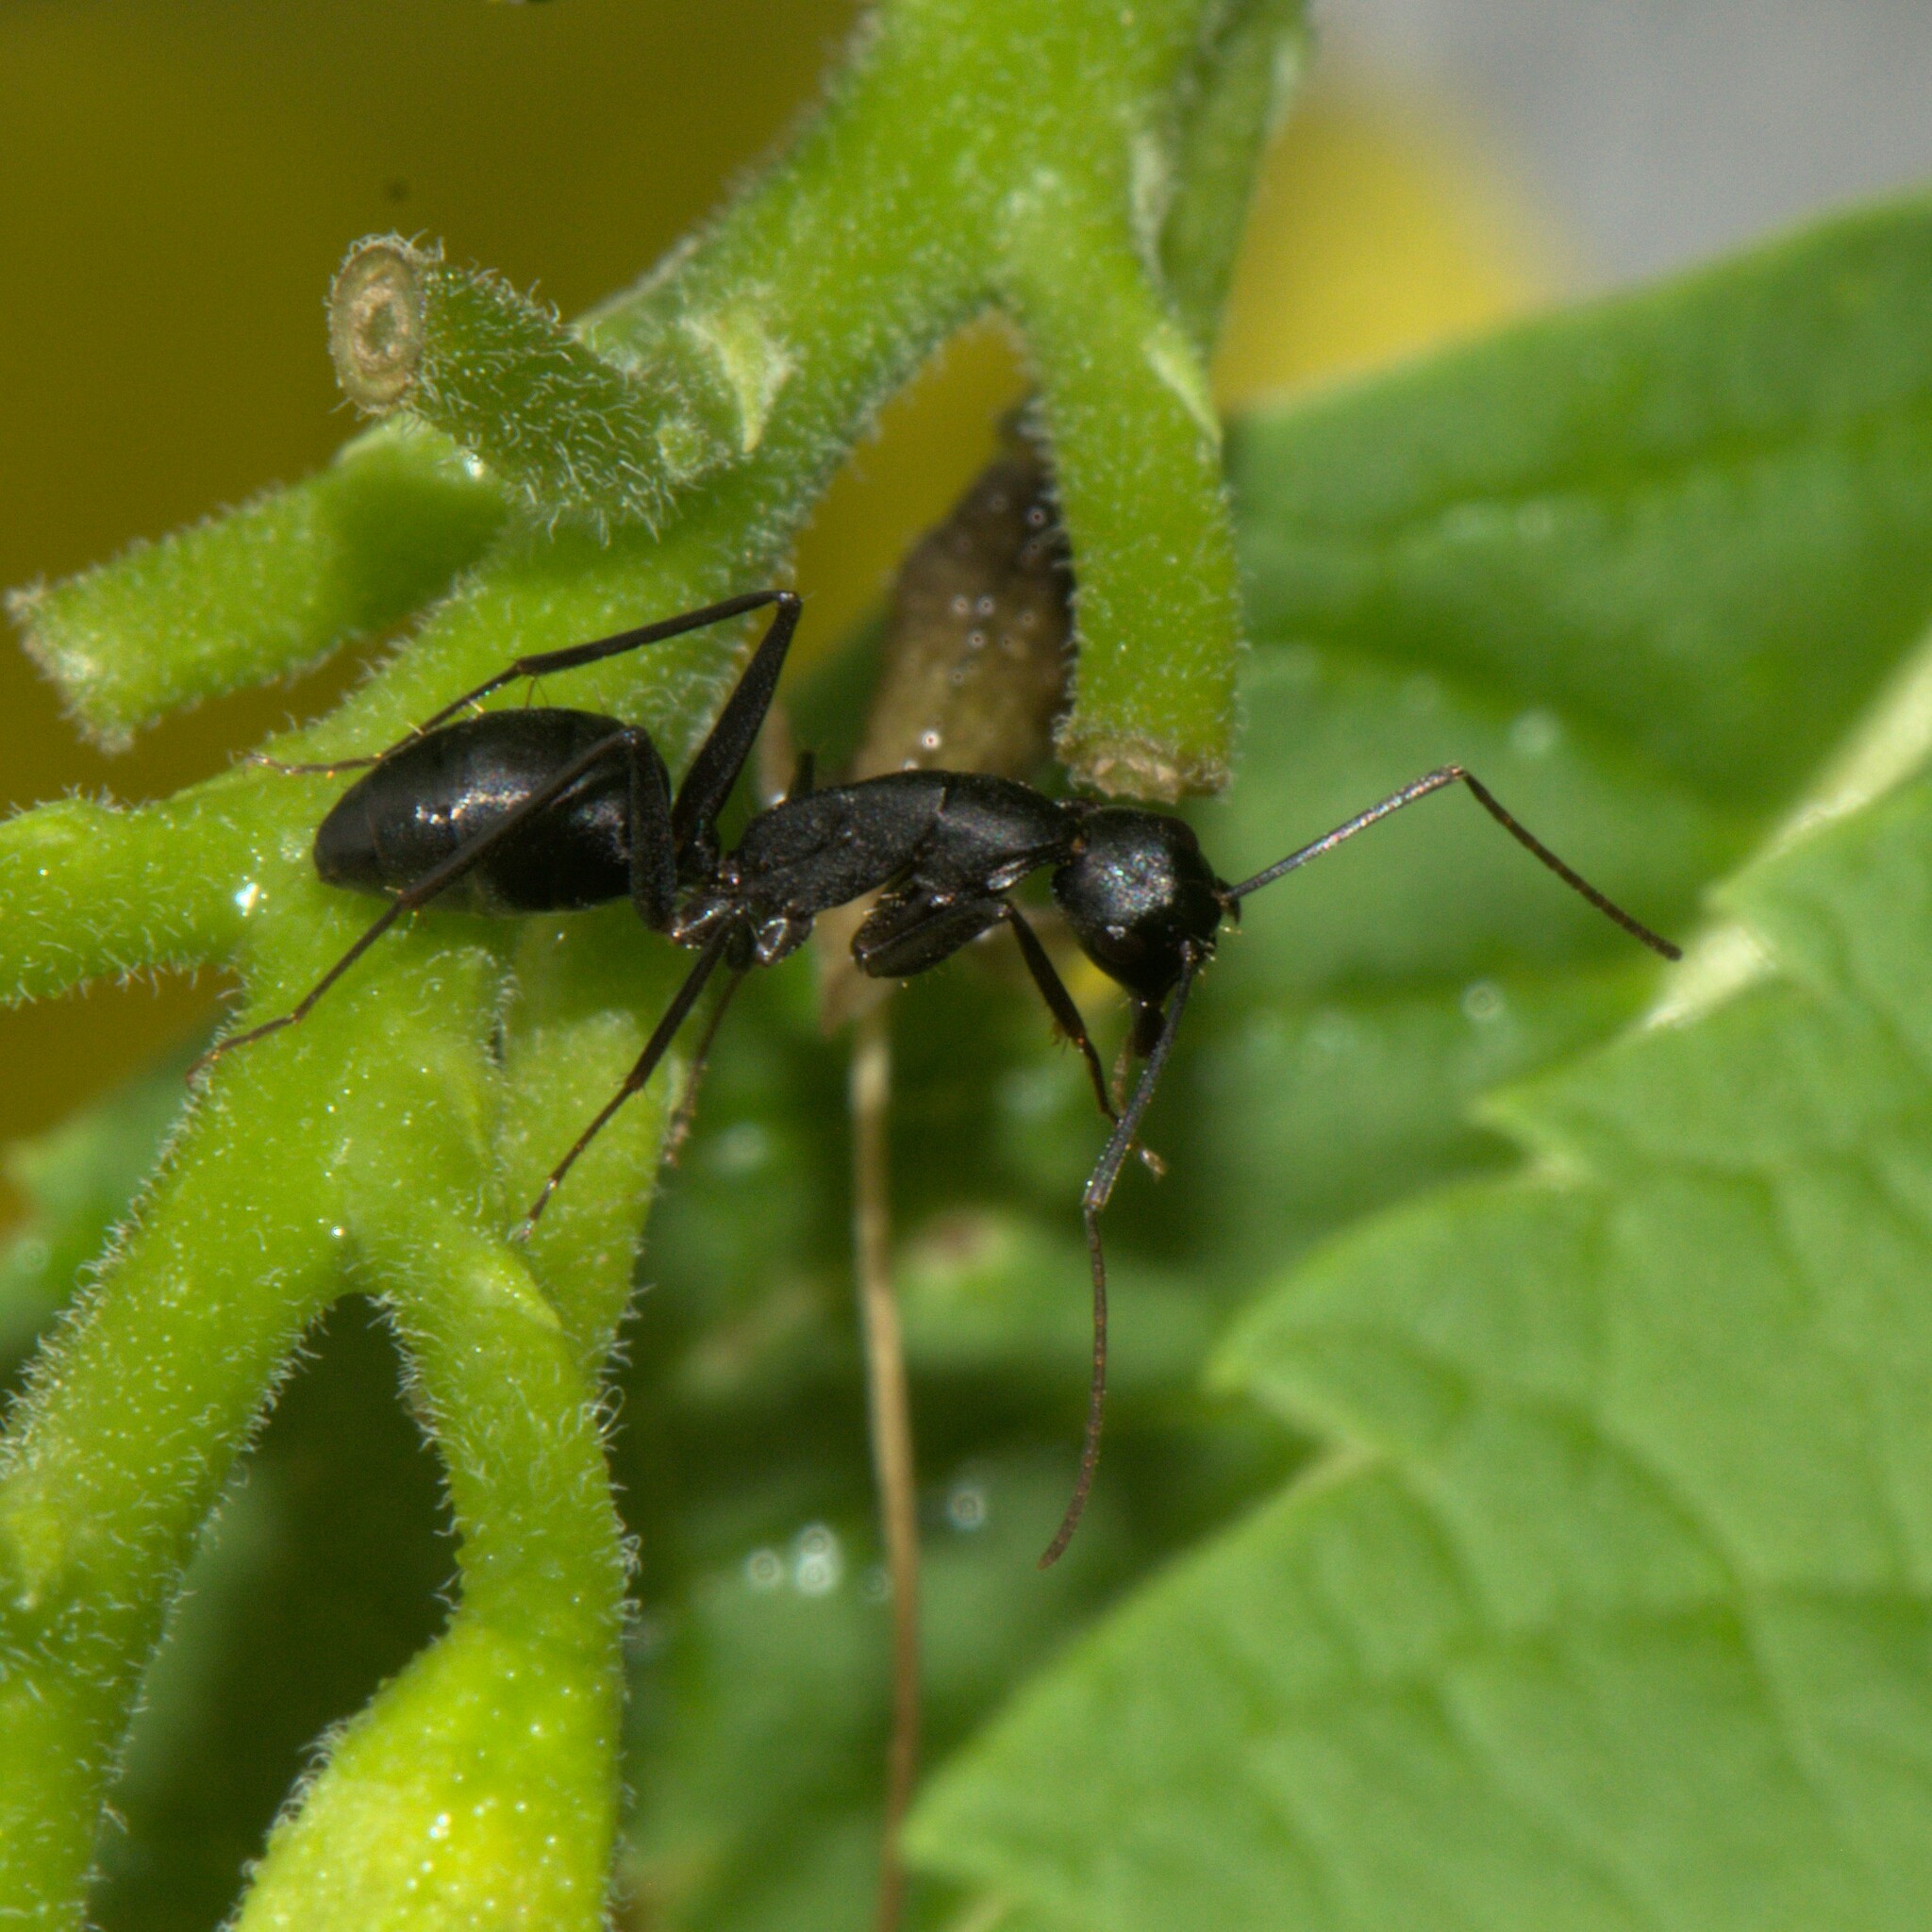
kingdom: Animalia
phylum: Arthropoda
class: Insecta
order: Hymenoptera
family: Formicidae
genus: Camponotus
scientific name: Camponotus compressus
